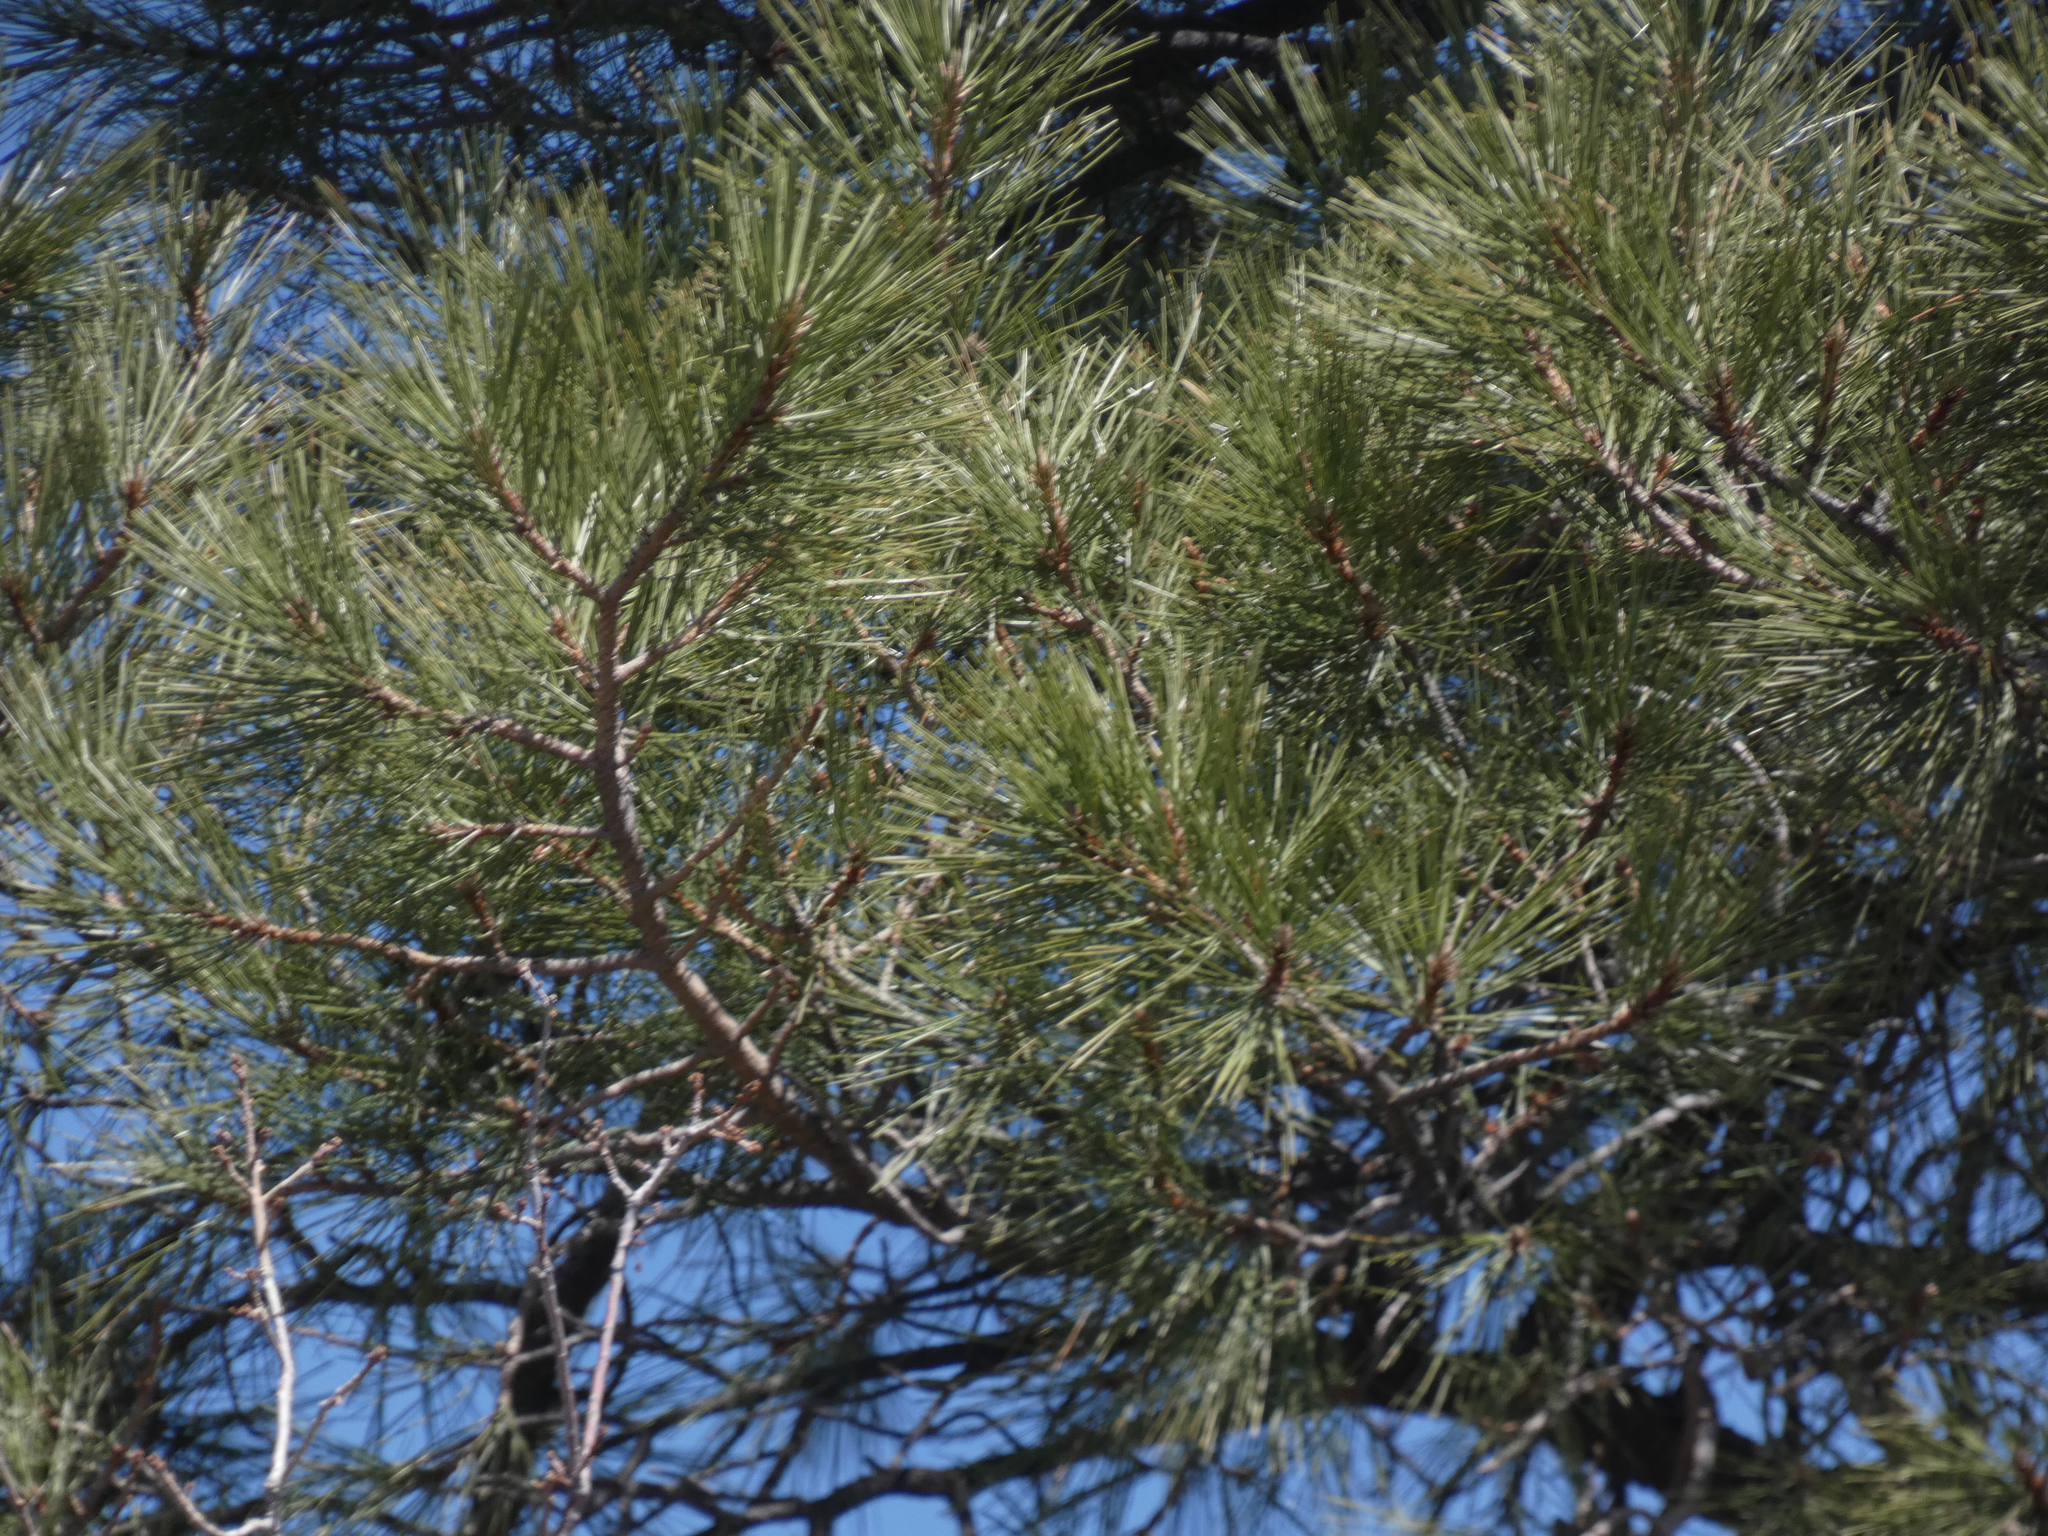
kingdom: Plantae
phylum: Tracheophyta
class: Pinopsida
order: Pinales
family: Pinaceae
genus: Pinus
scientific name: Pinus ponderosa
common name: Western yellow-pine
